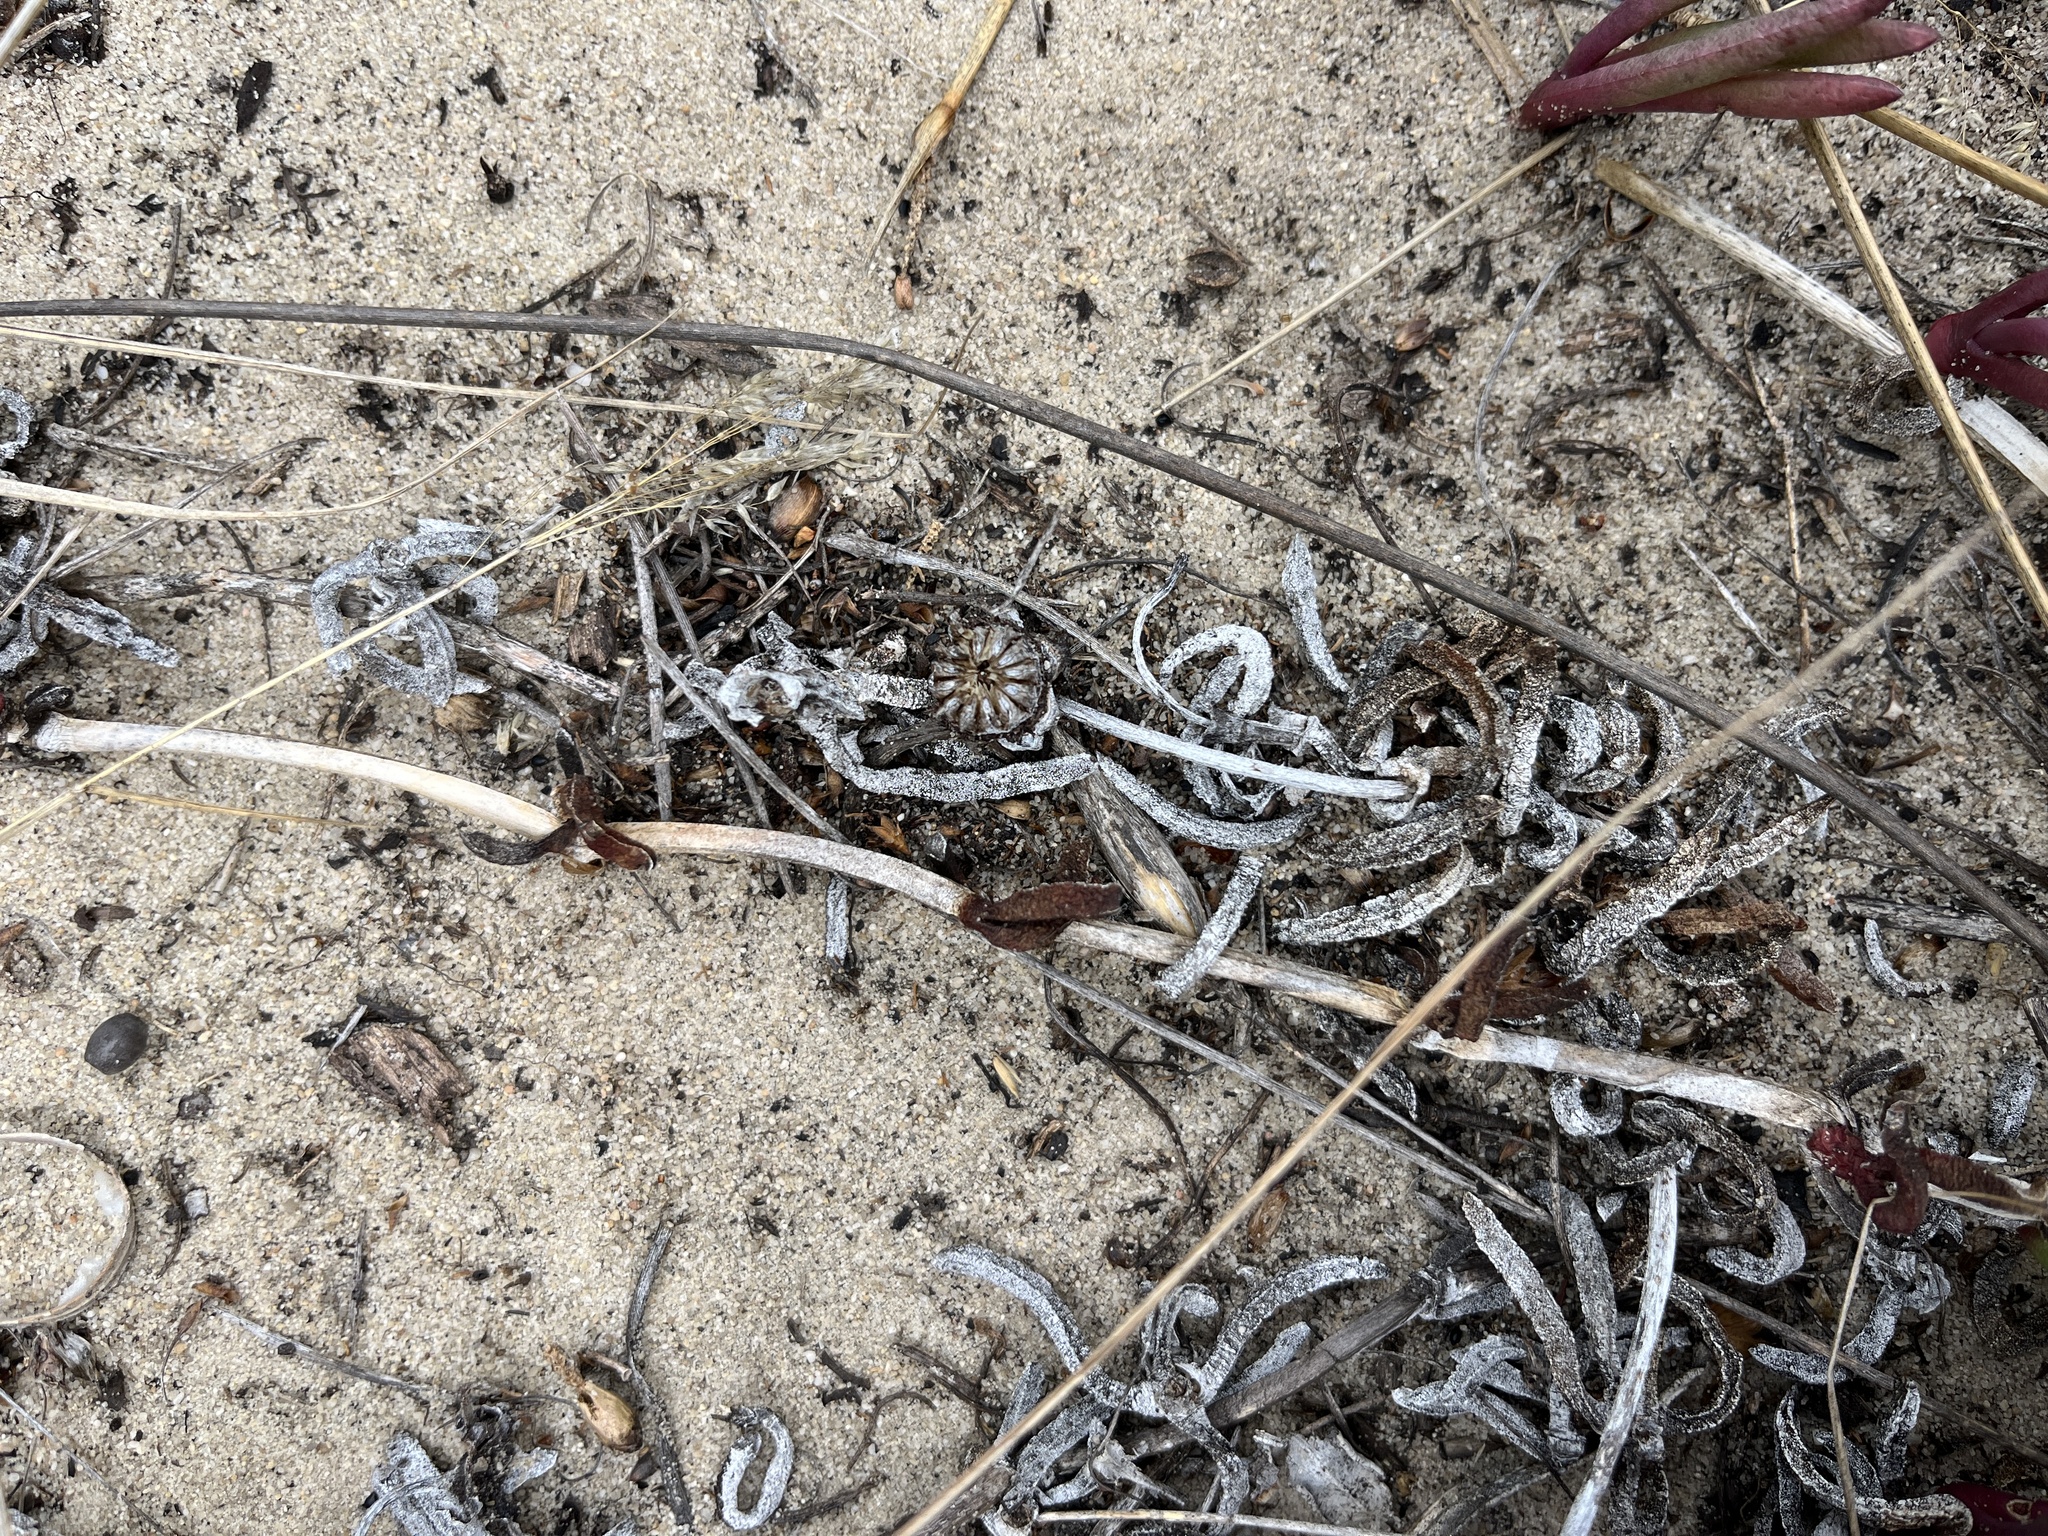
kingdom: Plantae
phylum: Tracheophyta
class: Magnoliopsida
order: Caryophyllales
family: Aizoaceae
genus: Jordaaniella
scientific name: Jordaaniella dubia
